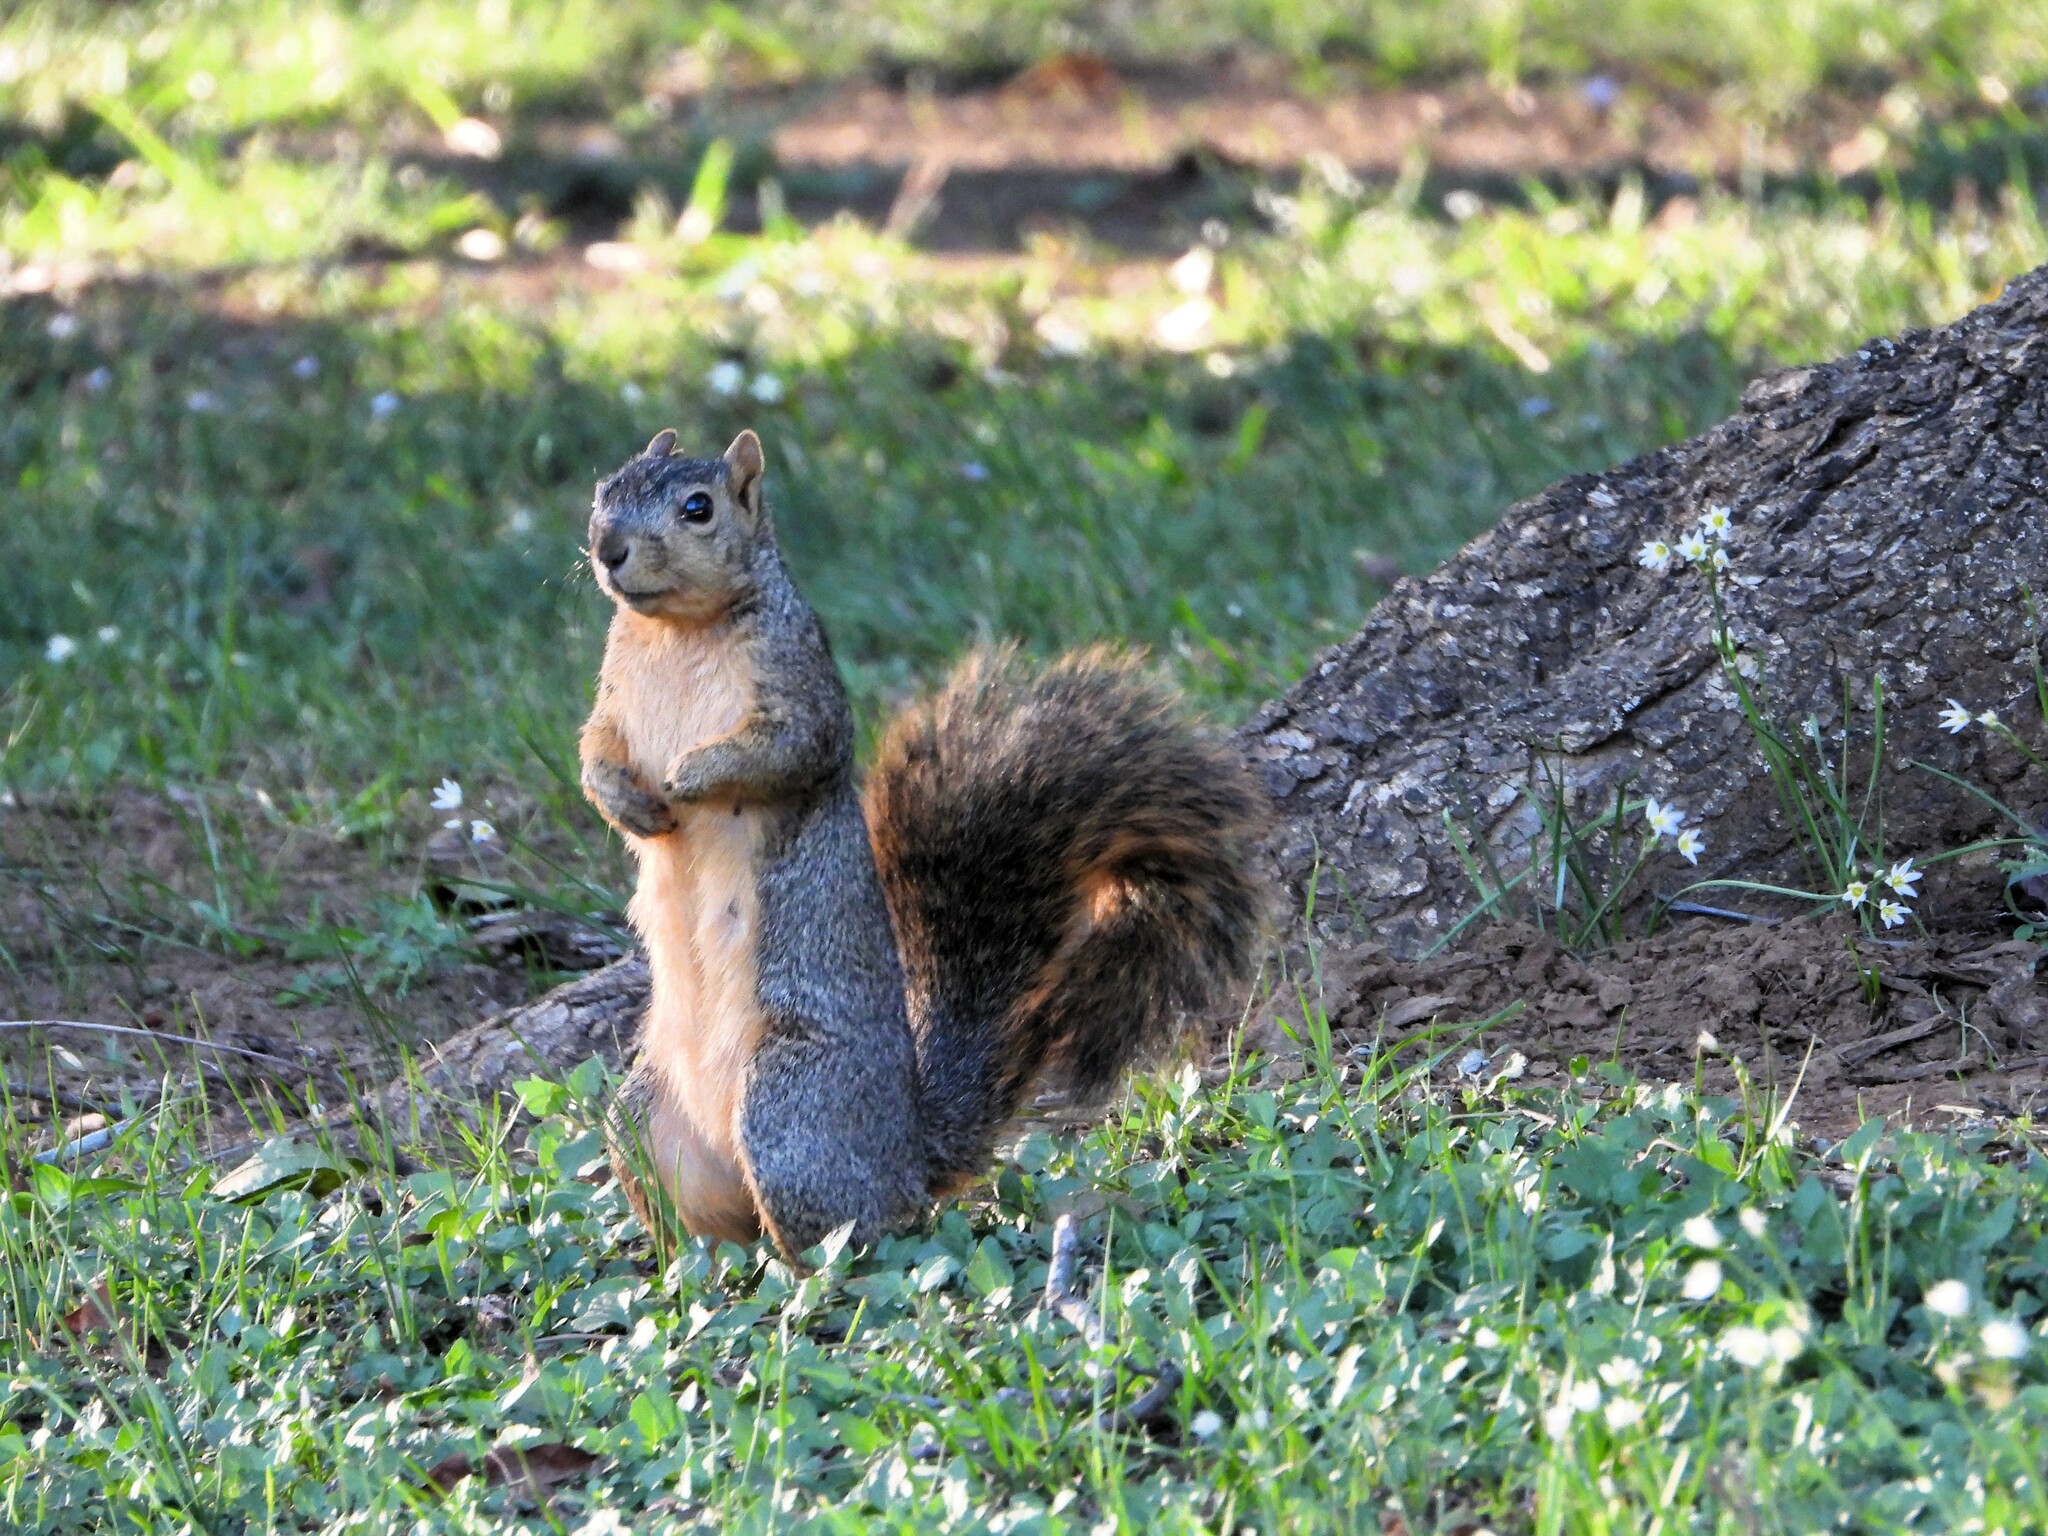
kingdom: Animalia
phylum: Chordata
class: Mammalia
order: Rodentia
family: Sciuridae
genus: Sciurus
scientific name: Sciurus niger
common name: Fox squirrel
